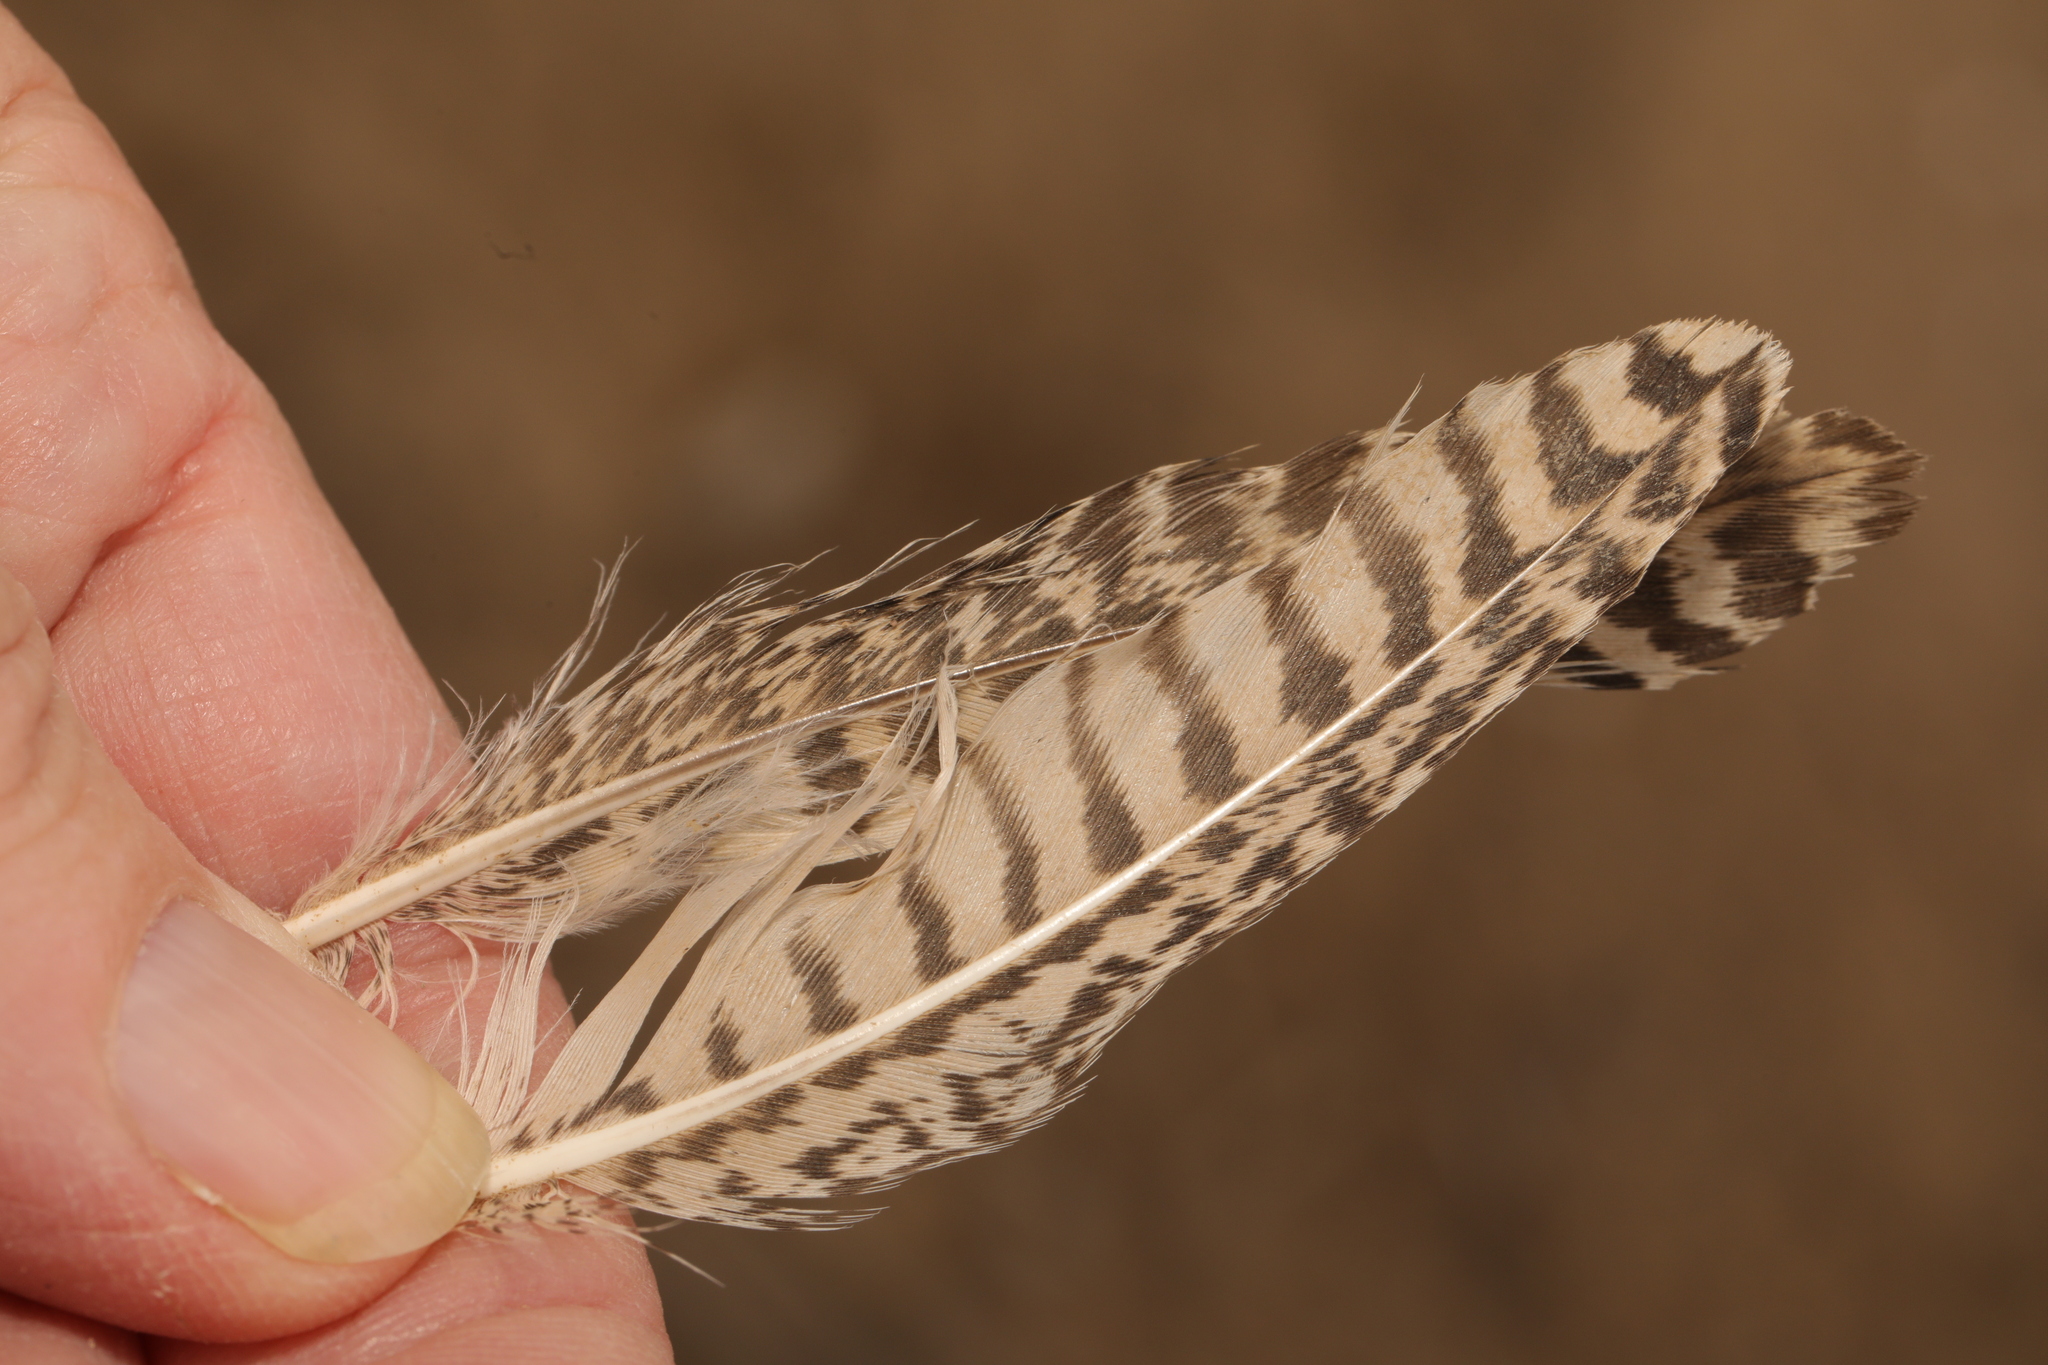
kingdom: Animalia
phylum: Chordata
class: Aves
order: Charadriiformes
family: Scolopacidae
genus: Tringa
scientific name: Tringa totanus
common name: Common redshank
